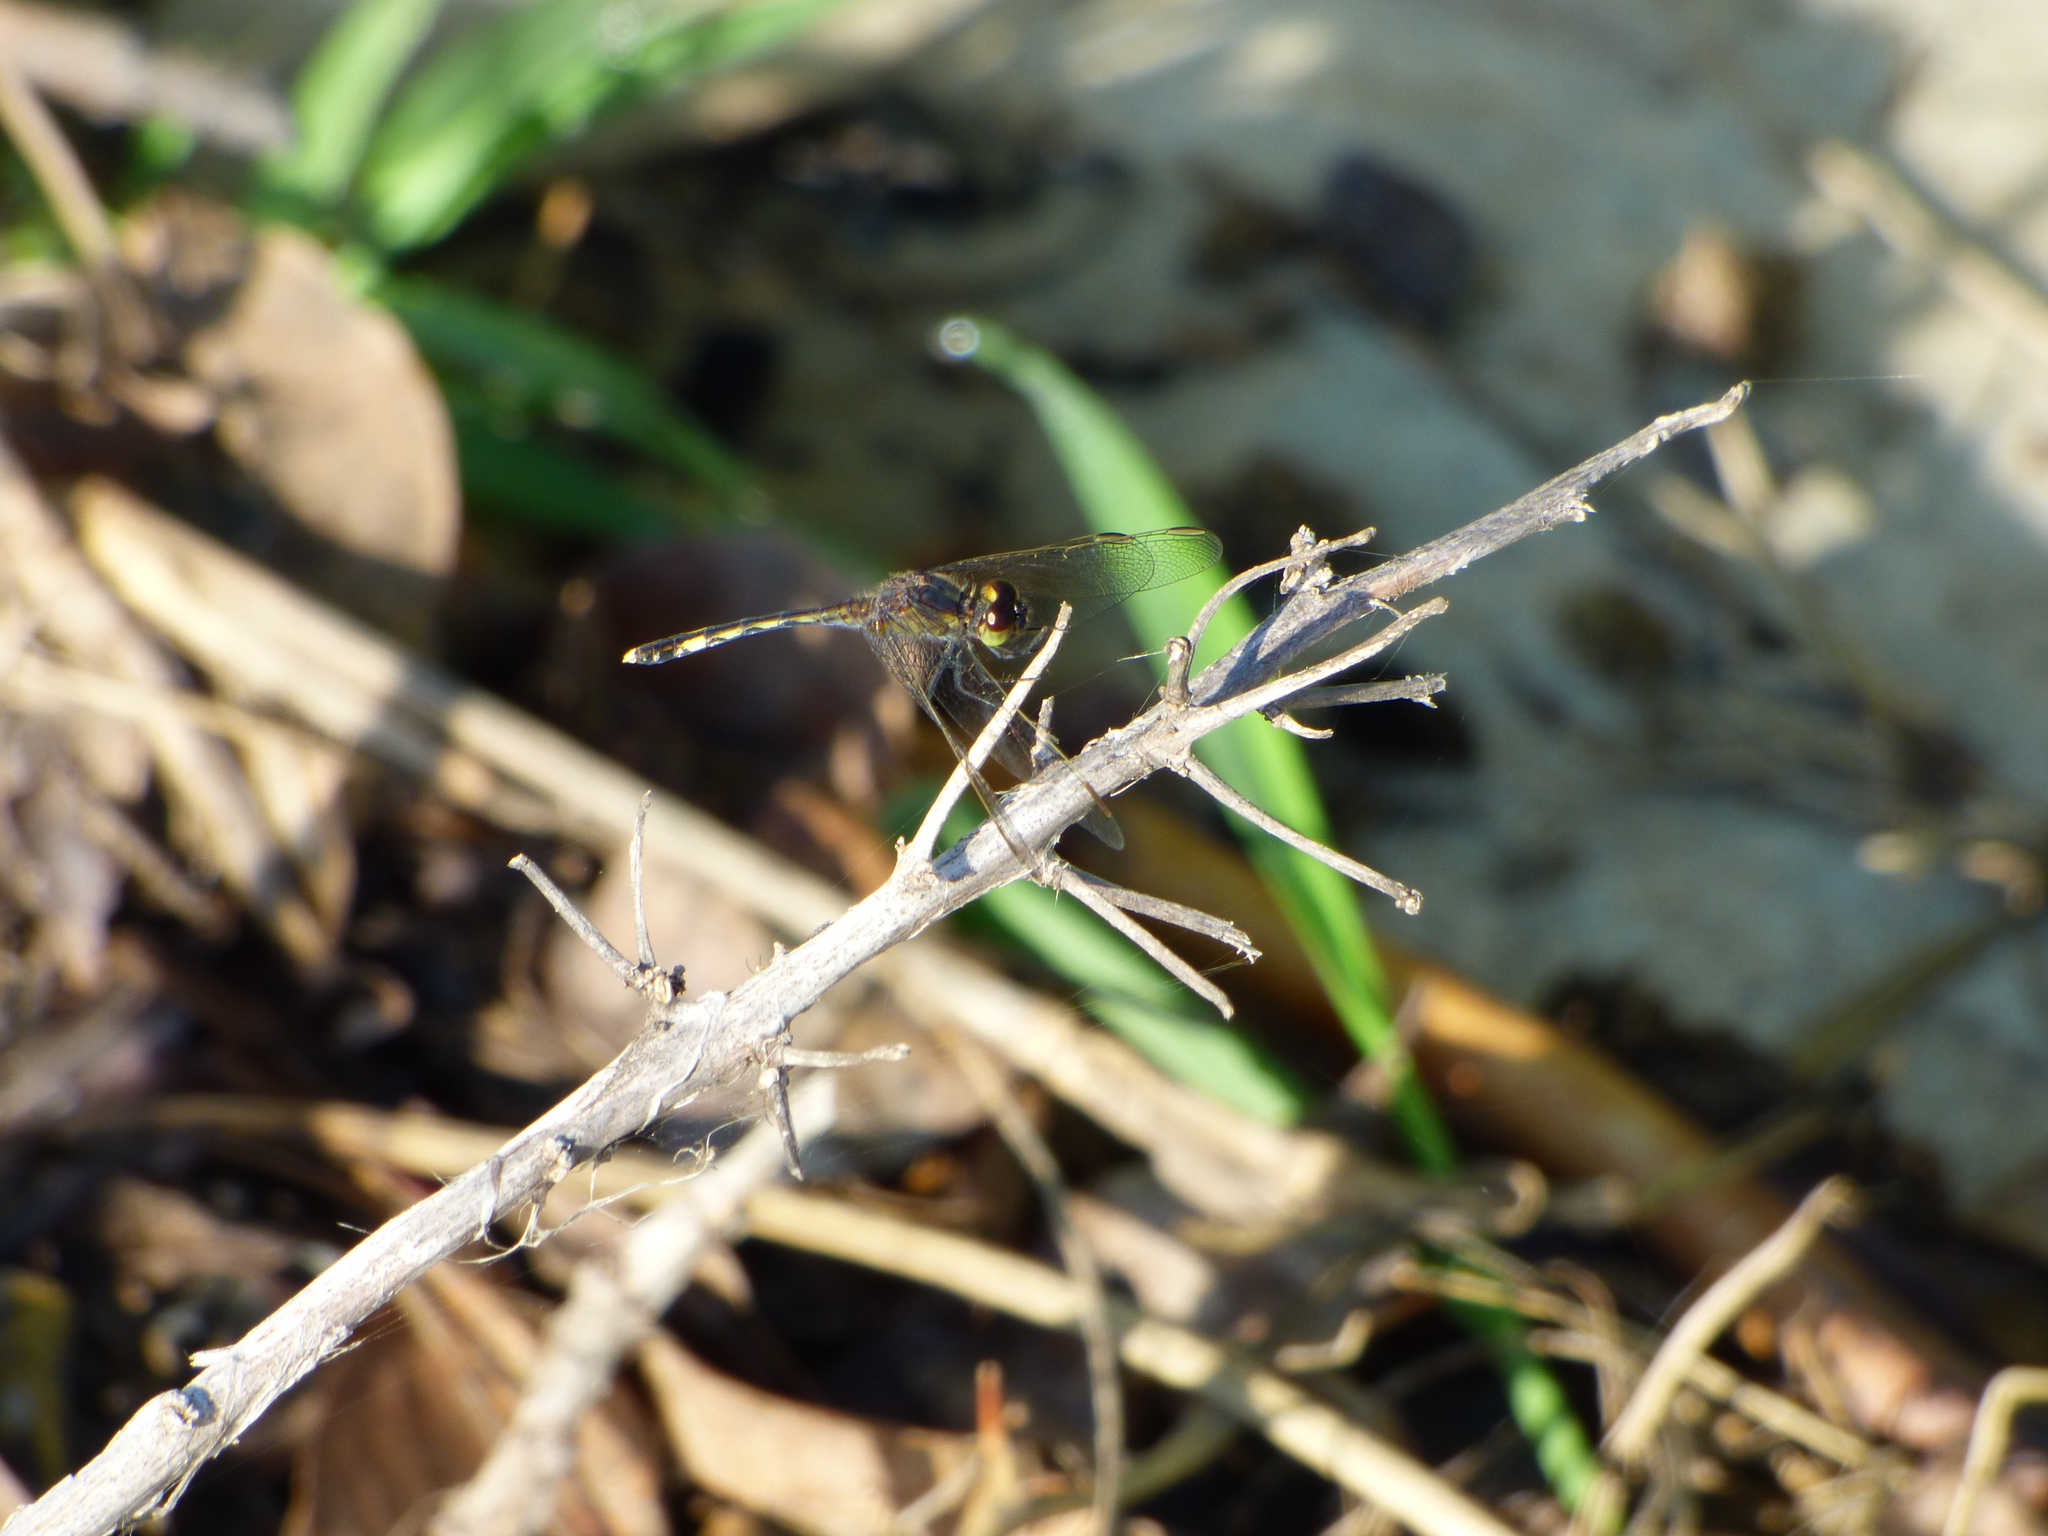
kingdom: Animalia
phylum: Arthropoda
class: Insecta
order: Odonata
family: Libellulidae
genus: Erythrodiplax
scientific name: Erythrodiplax nigricans
